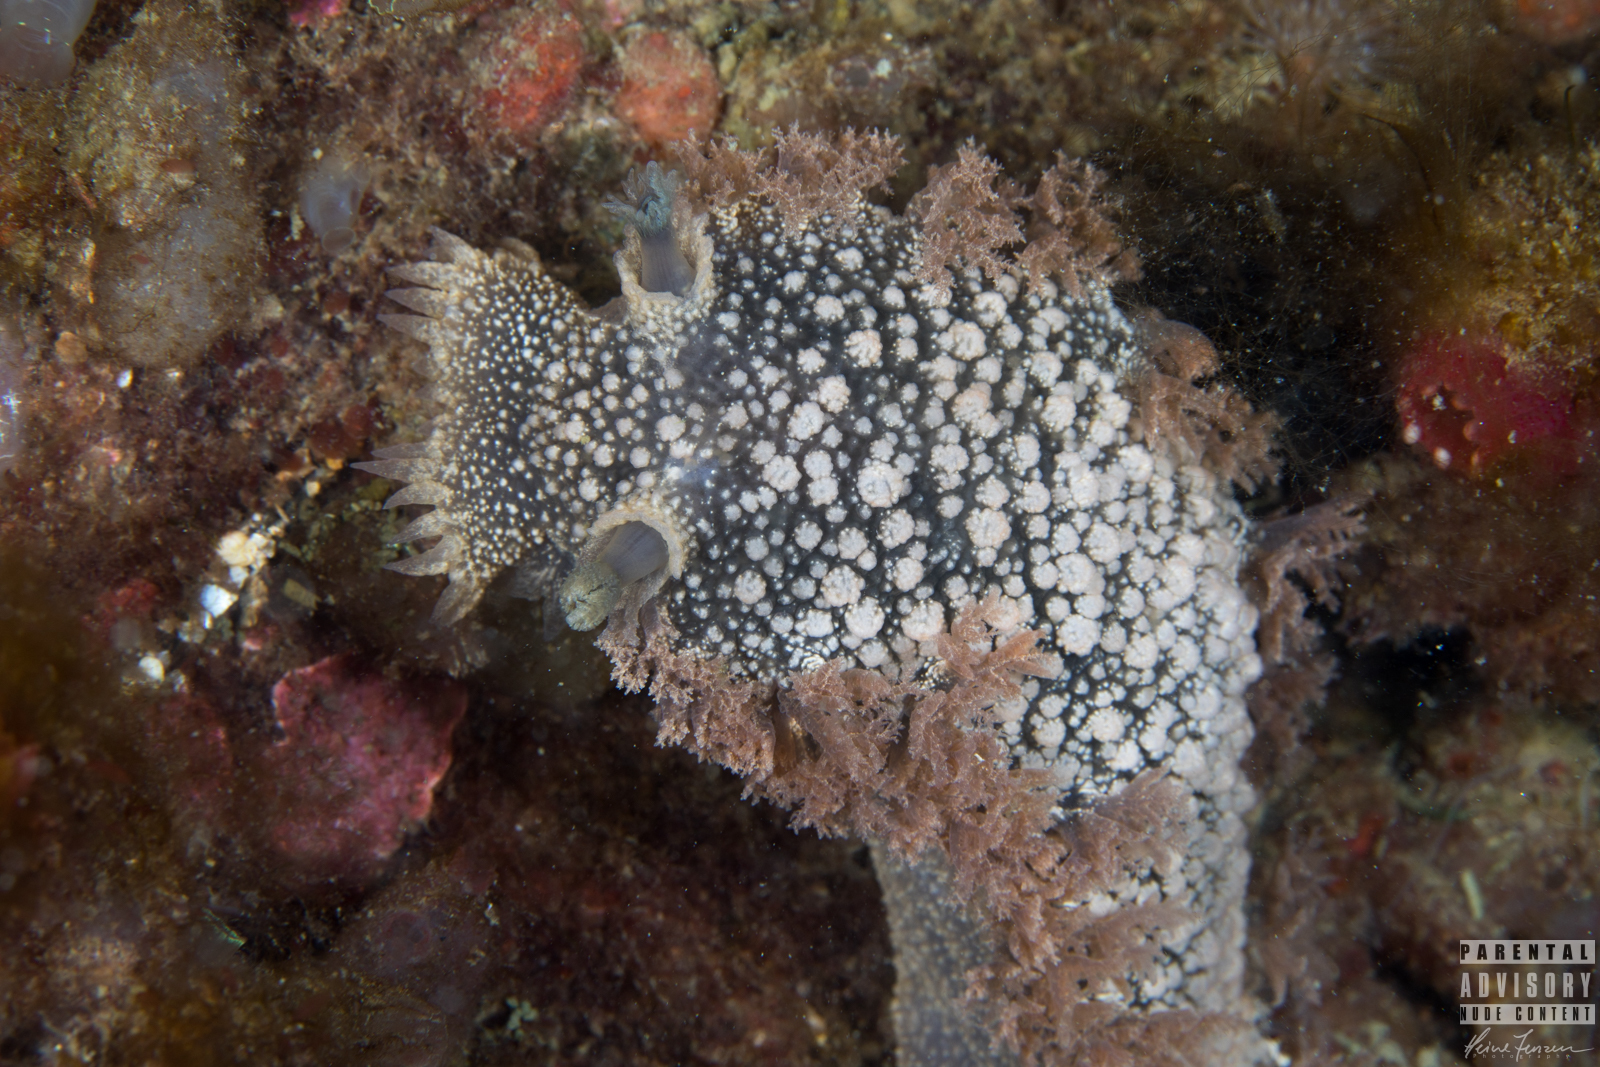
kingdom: Animalia
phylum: Mollusca
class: Gastropoda
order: Nudibranchia
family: Tritoniidae
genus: Tritonia
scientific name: Tritonia hombergii
